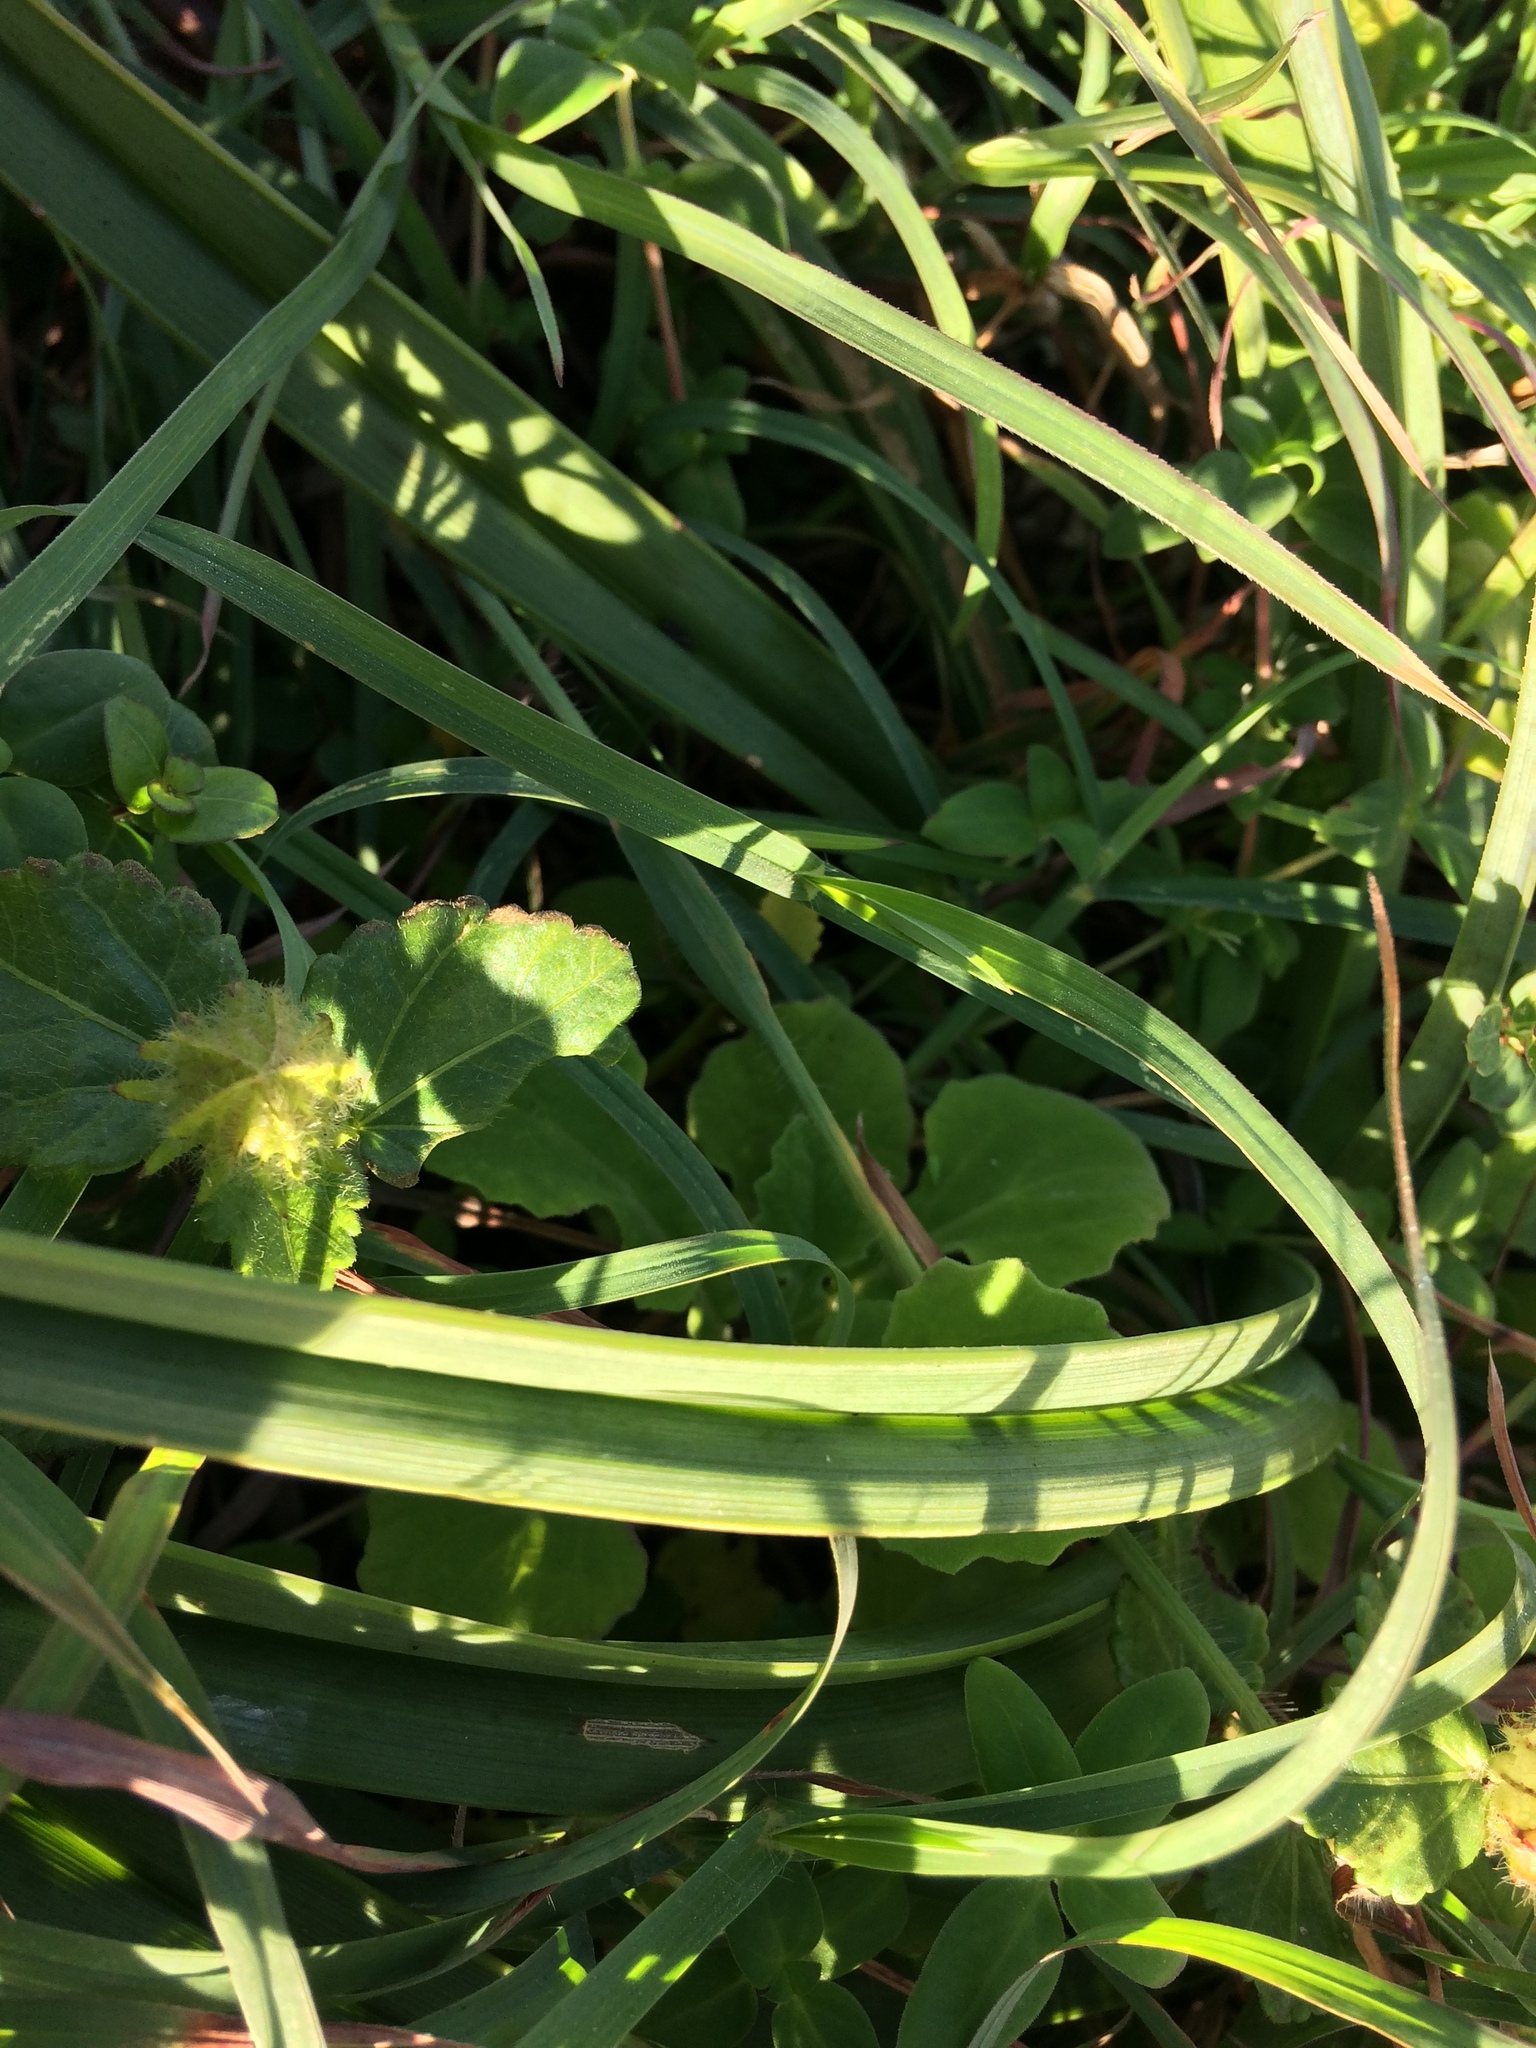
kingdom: Plantae
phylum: Tracheophyta
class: Liliopsida
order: Asparagales
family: Asphodelaceae
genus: Kniphofia
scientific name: Kniphofia rooperi
